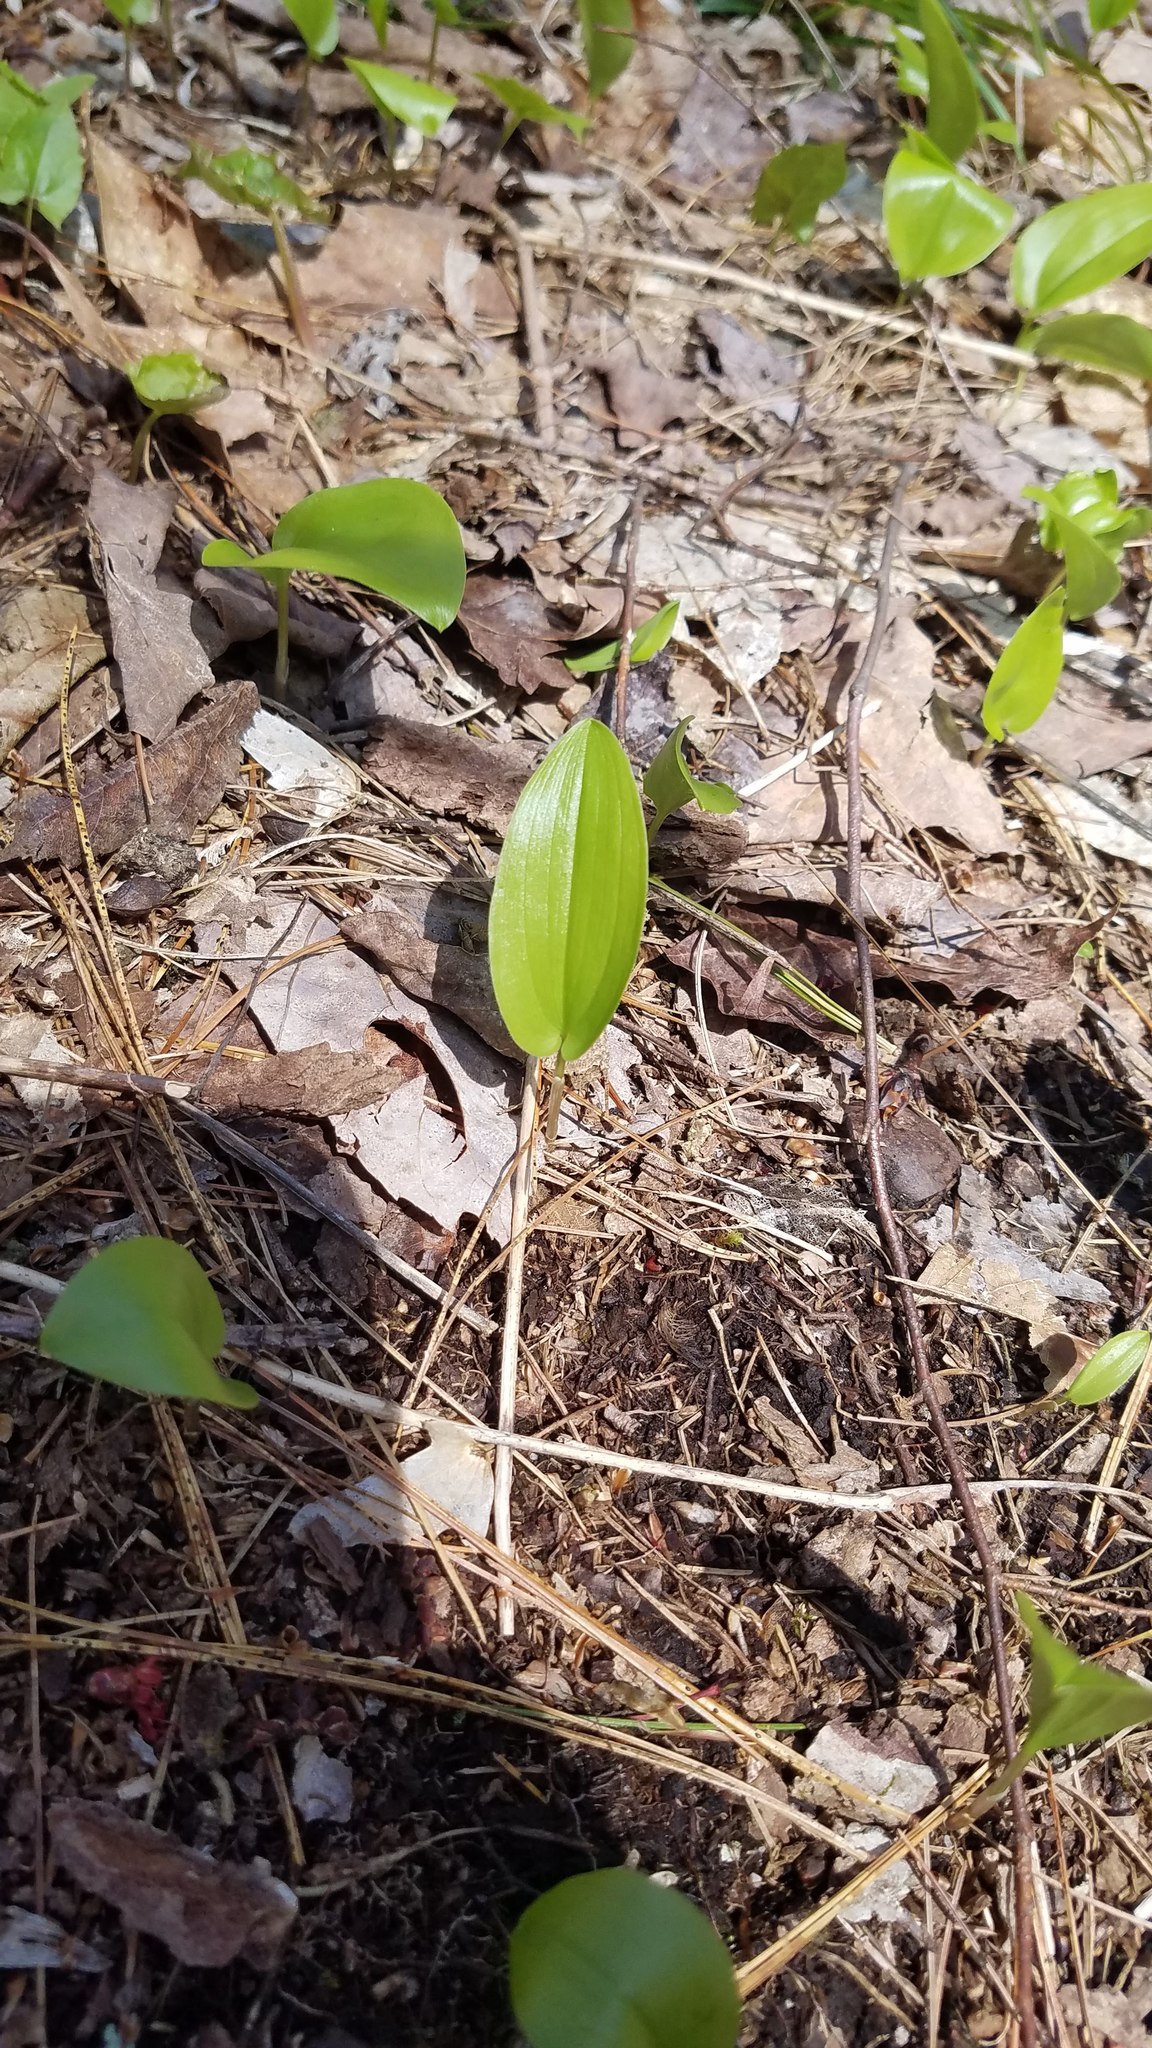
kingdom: Plantae
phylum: Tracheophyta
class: Liliopsida
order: Asparagales
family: Asparagaceae
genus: Maianthemum
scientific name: Maianthemum canadense
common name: False lily-of-the-valley
